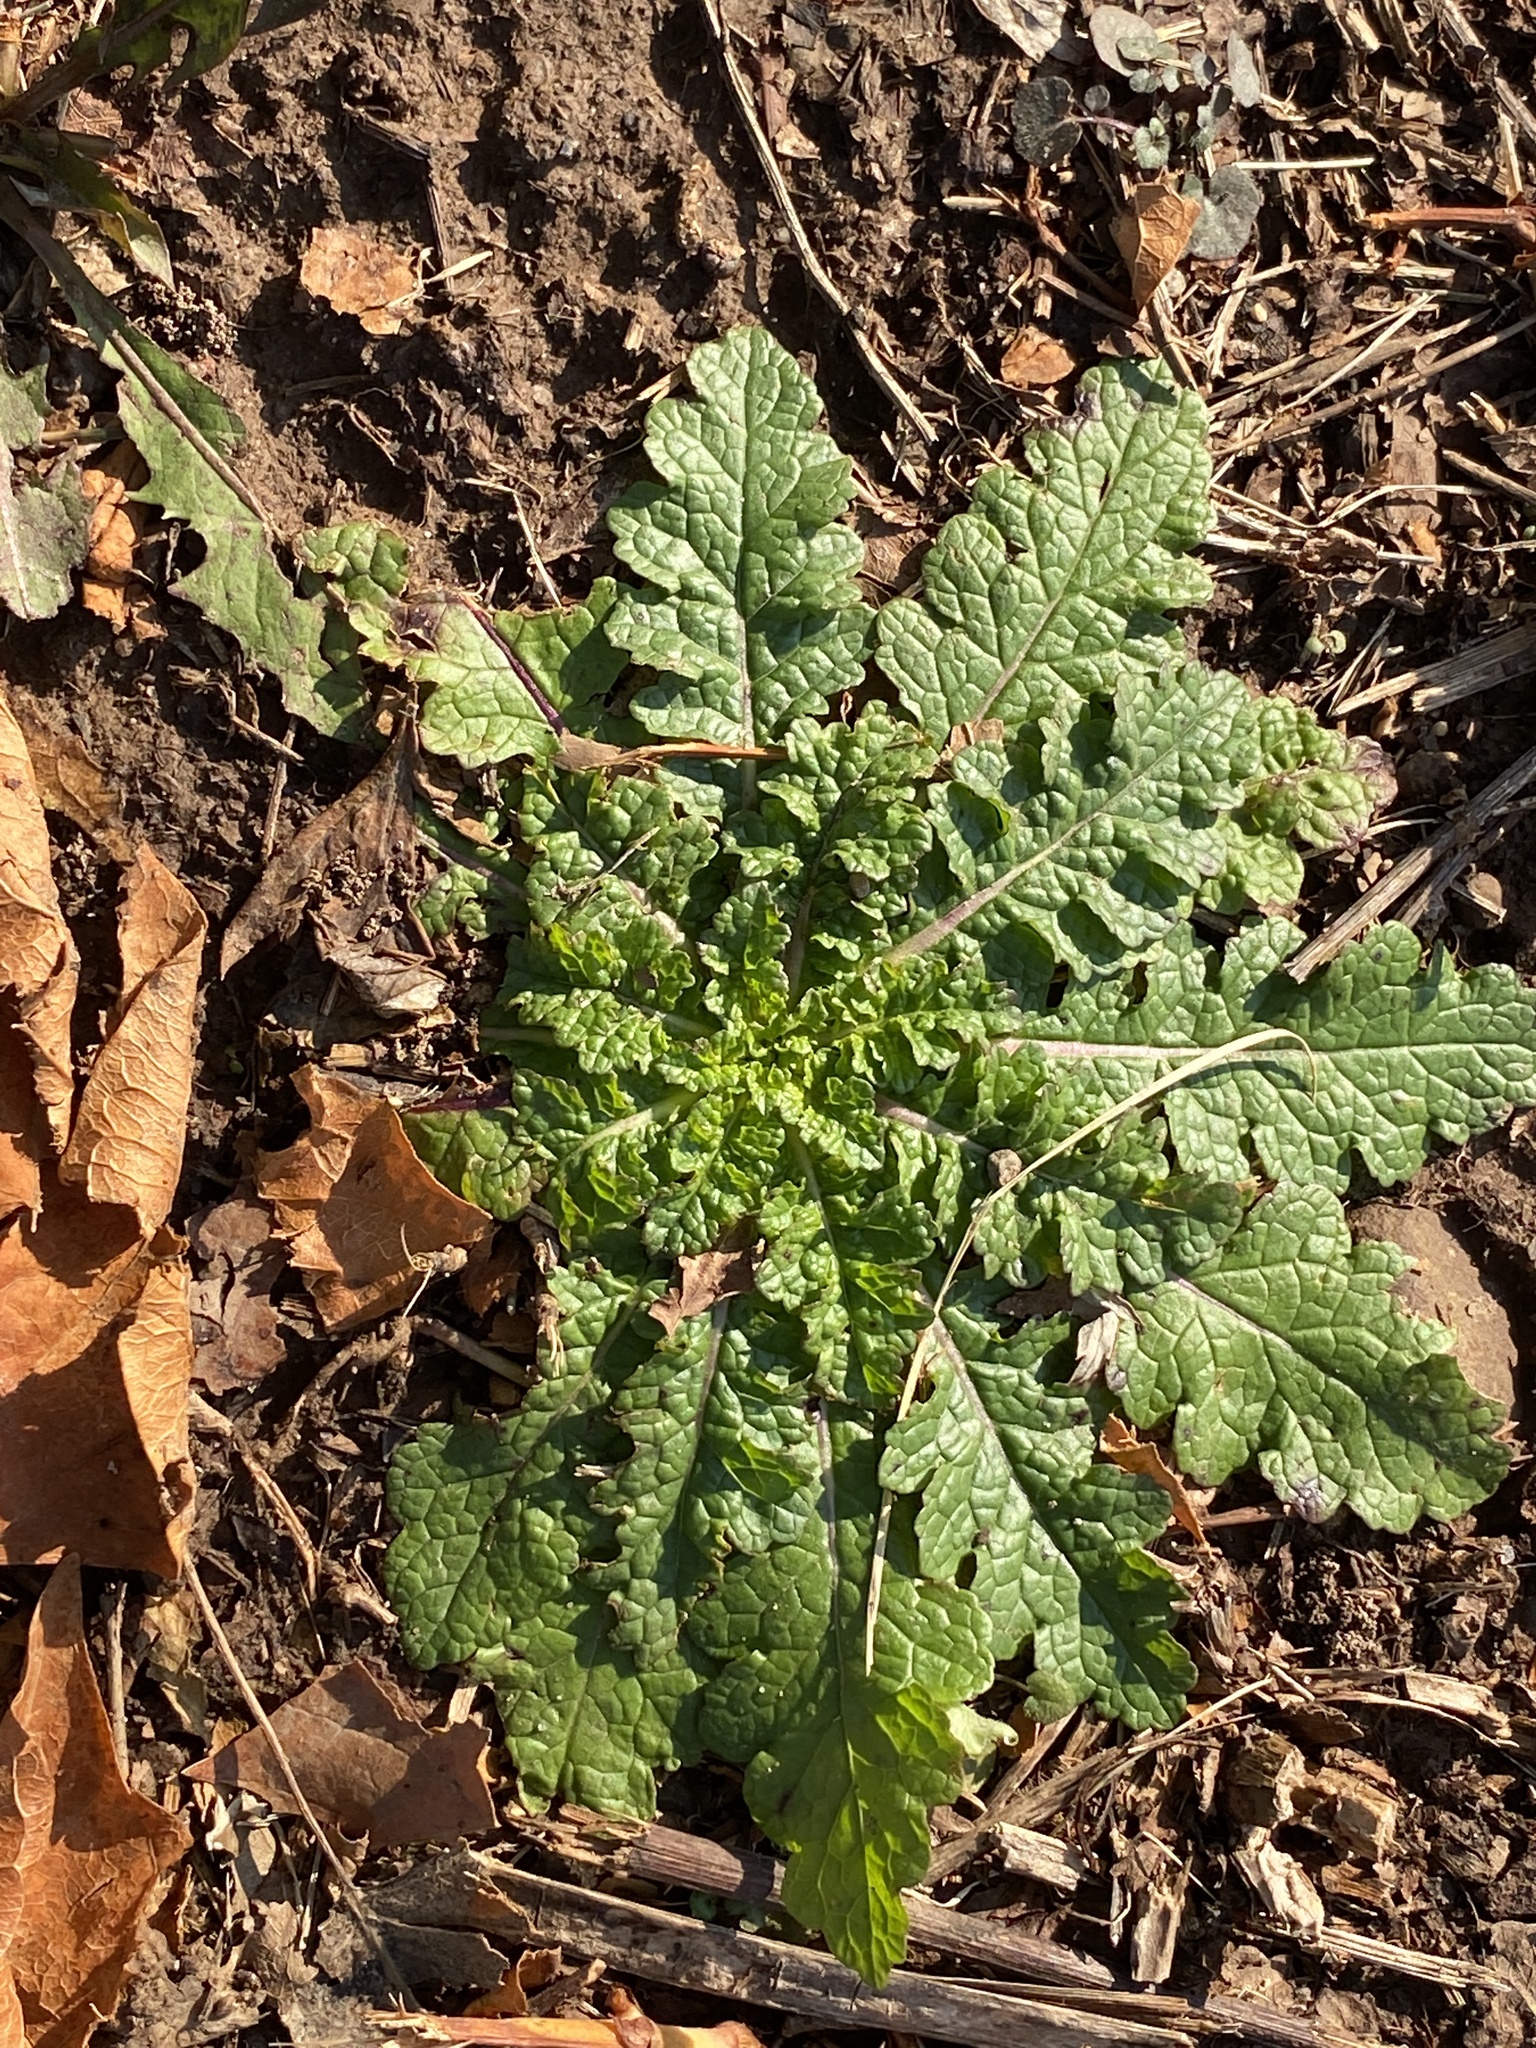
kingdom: Plantae
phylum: Tracheophyta
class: Magnoliopsida
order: Lamiales
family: Scrophulariaceae
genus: Verbascum
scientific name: Verbascum blattaria
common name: Moth mullein
